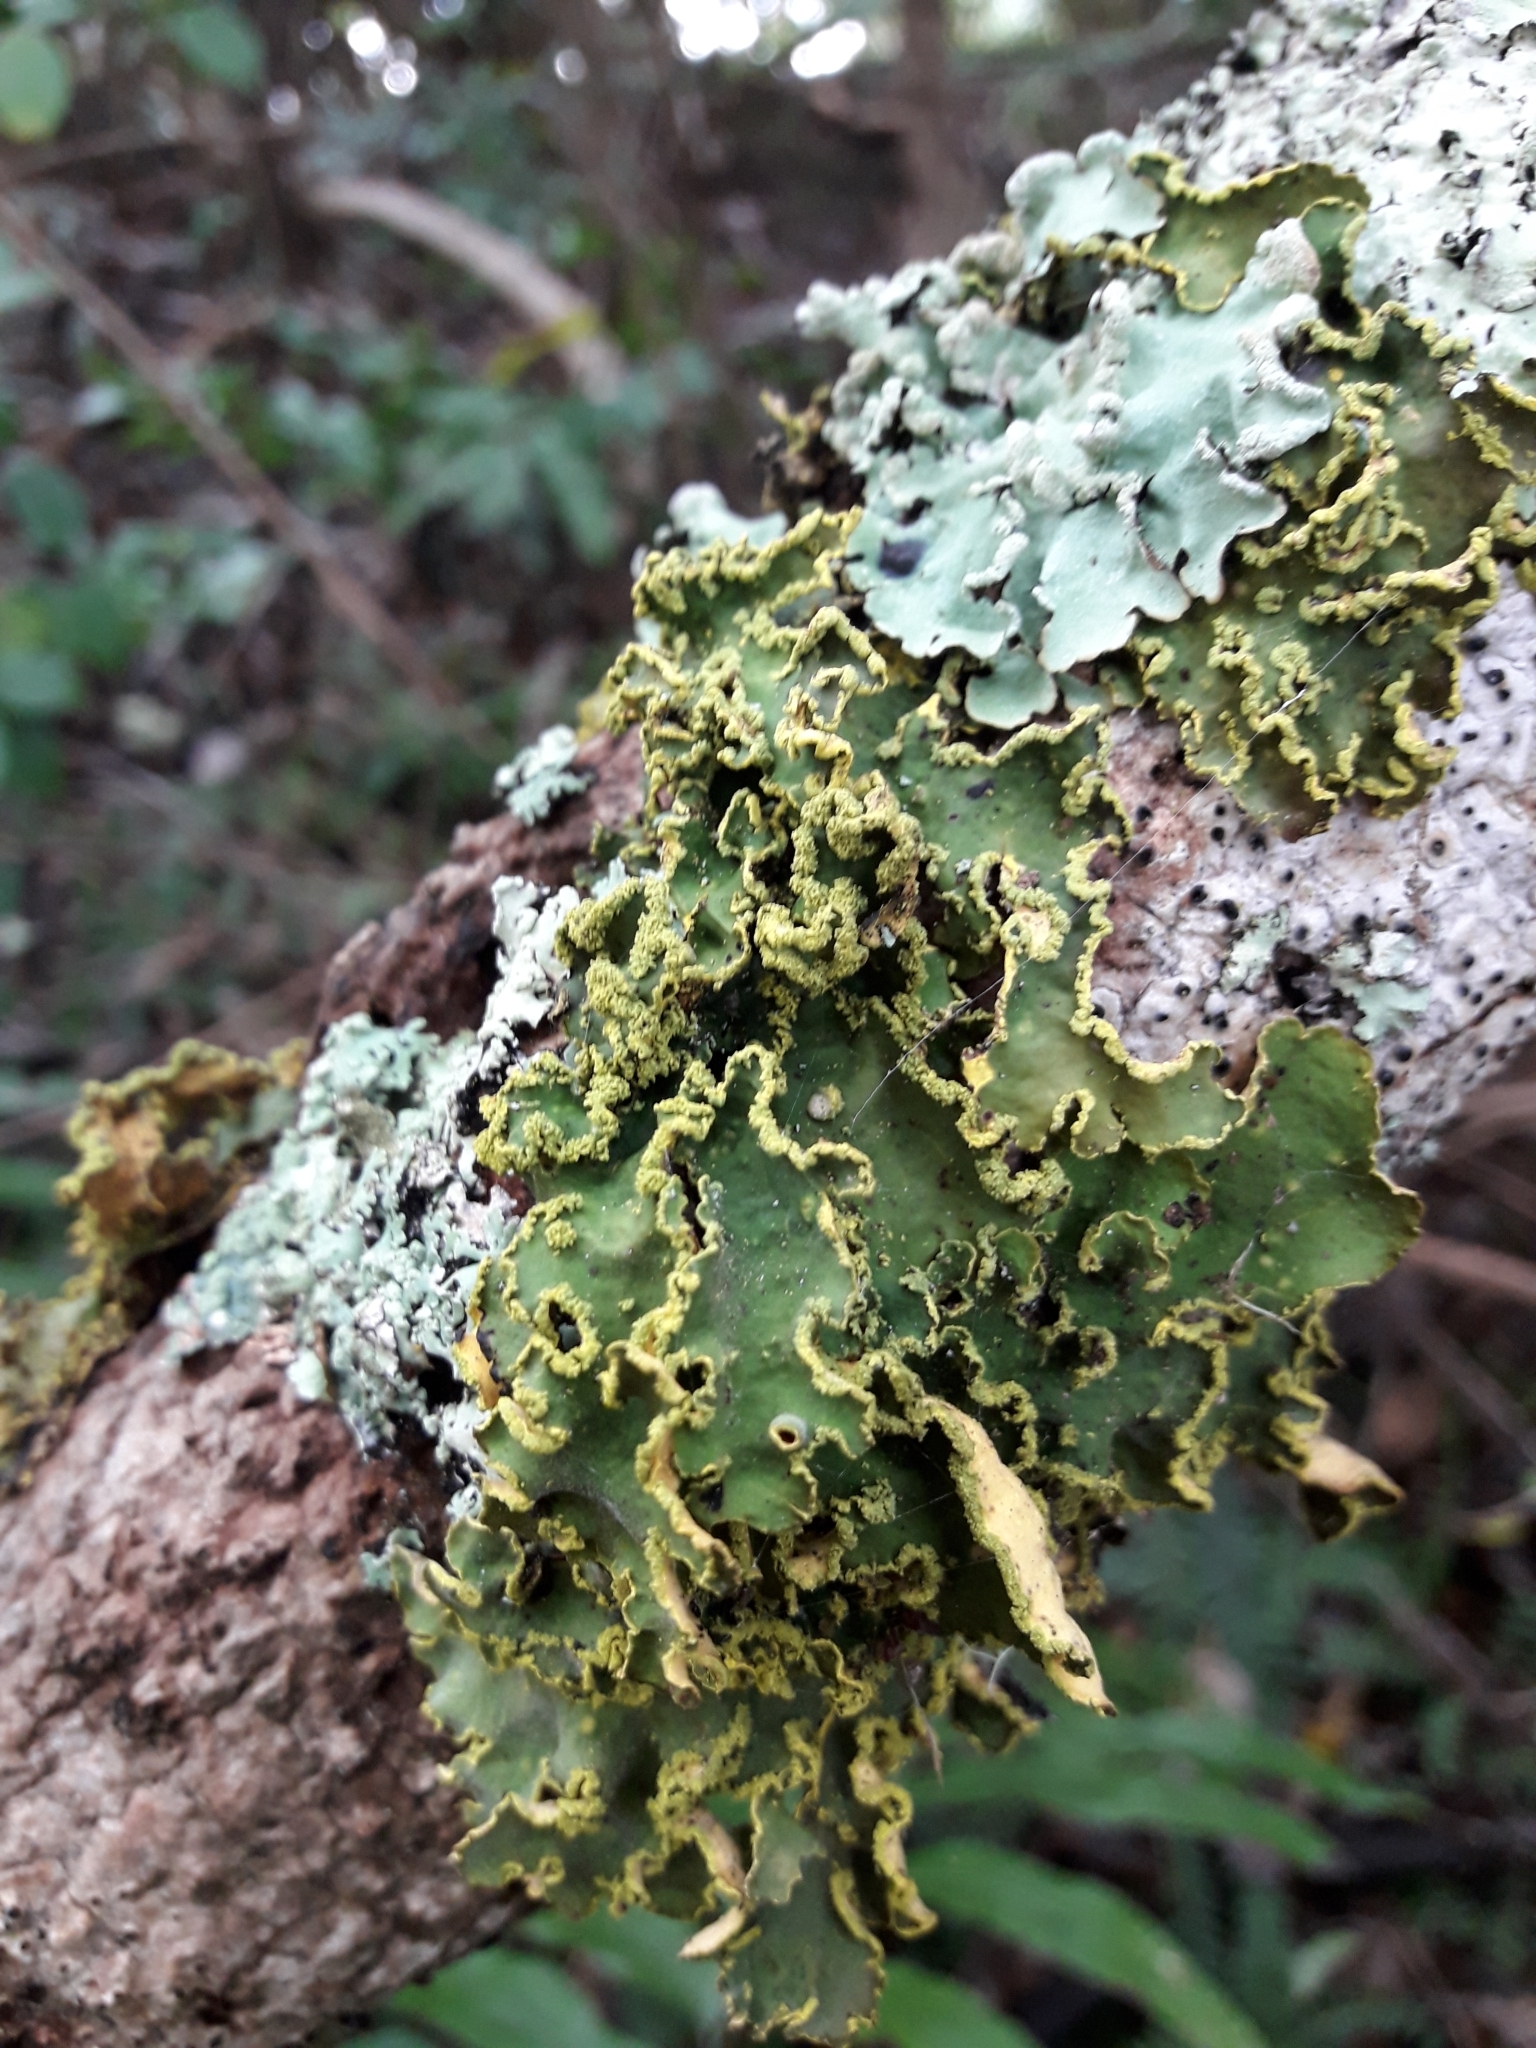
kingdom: Fungi
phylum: Ascomycota
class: Lecanoromycetes
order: Peltigerales
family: Lobariaceae
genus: Pseudocyphellaria
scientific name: Pseudocyphellaria aurata
